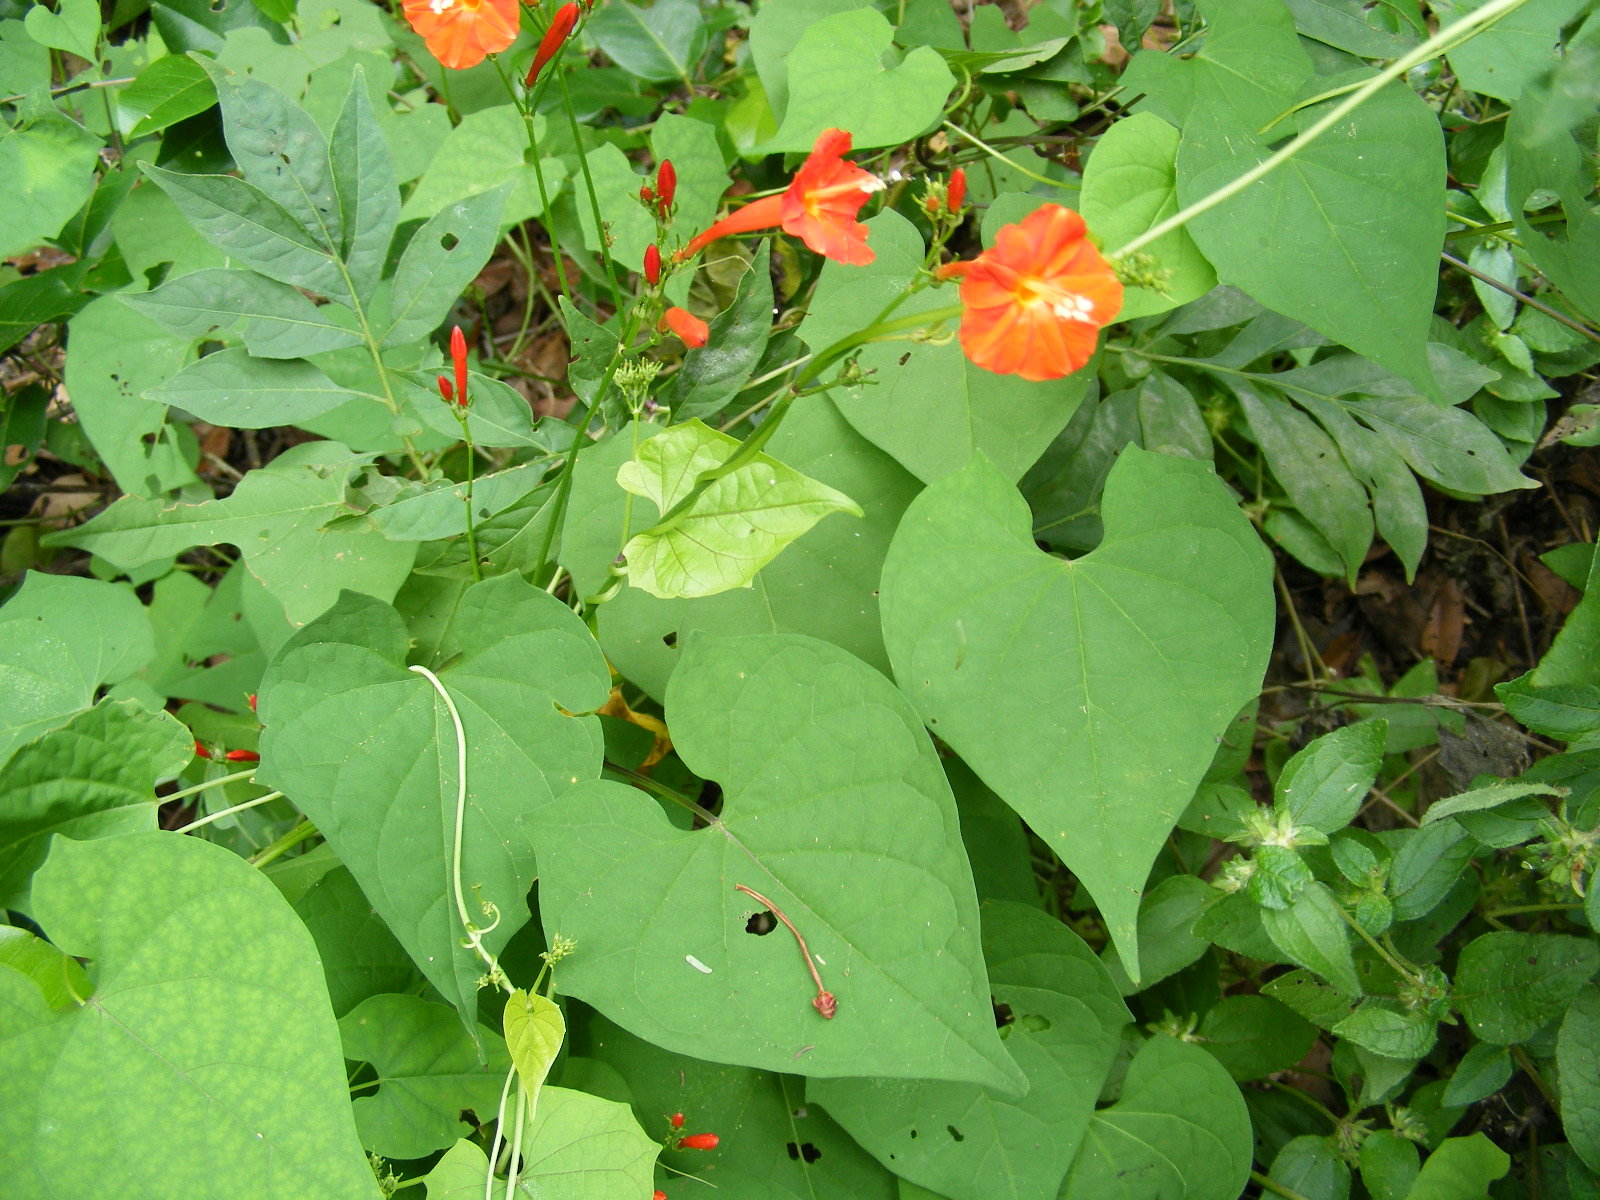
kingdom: Plantae
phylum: Tracheophyta
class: Magnoliopsida
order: Solanales
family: Convolvulaceae
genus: Ipomoea
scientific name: Ipomoea hederifolia
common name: Ivy-leaf morning-glory
